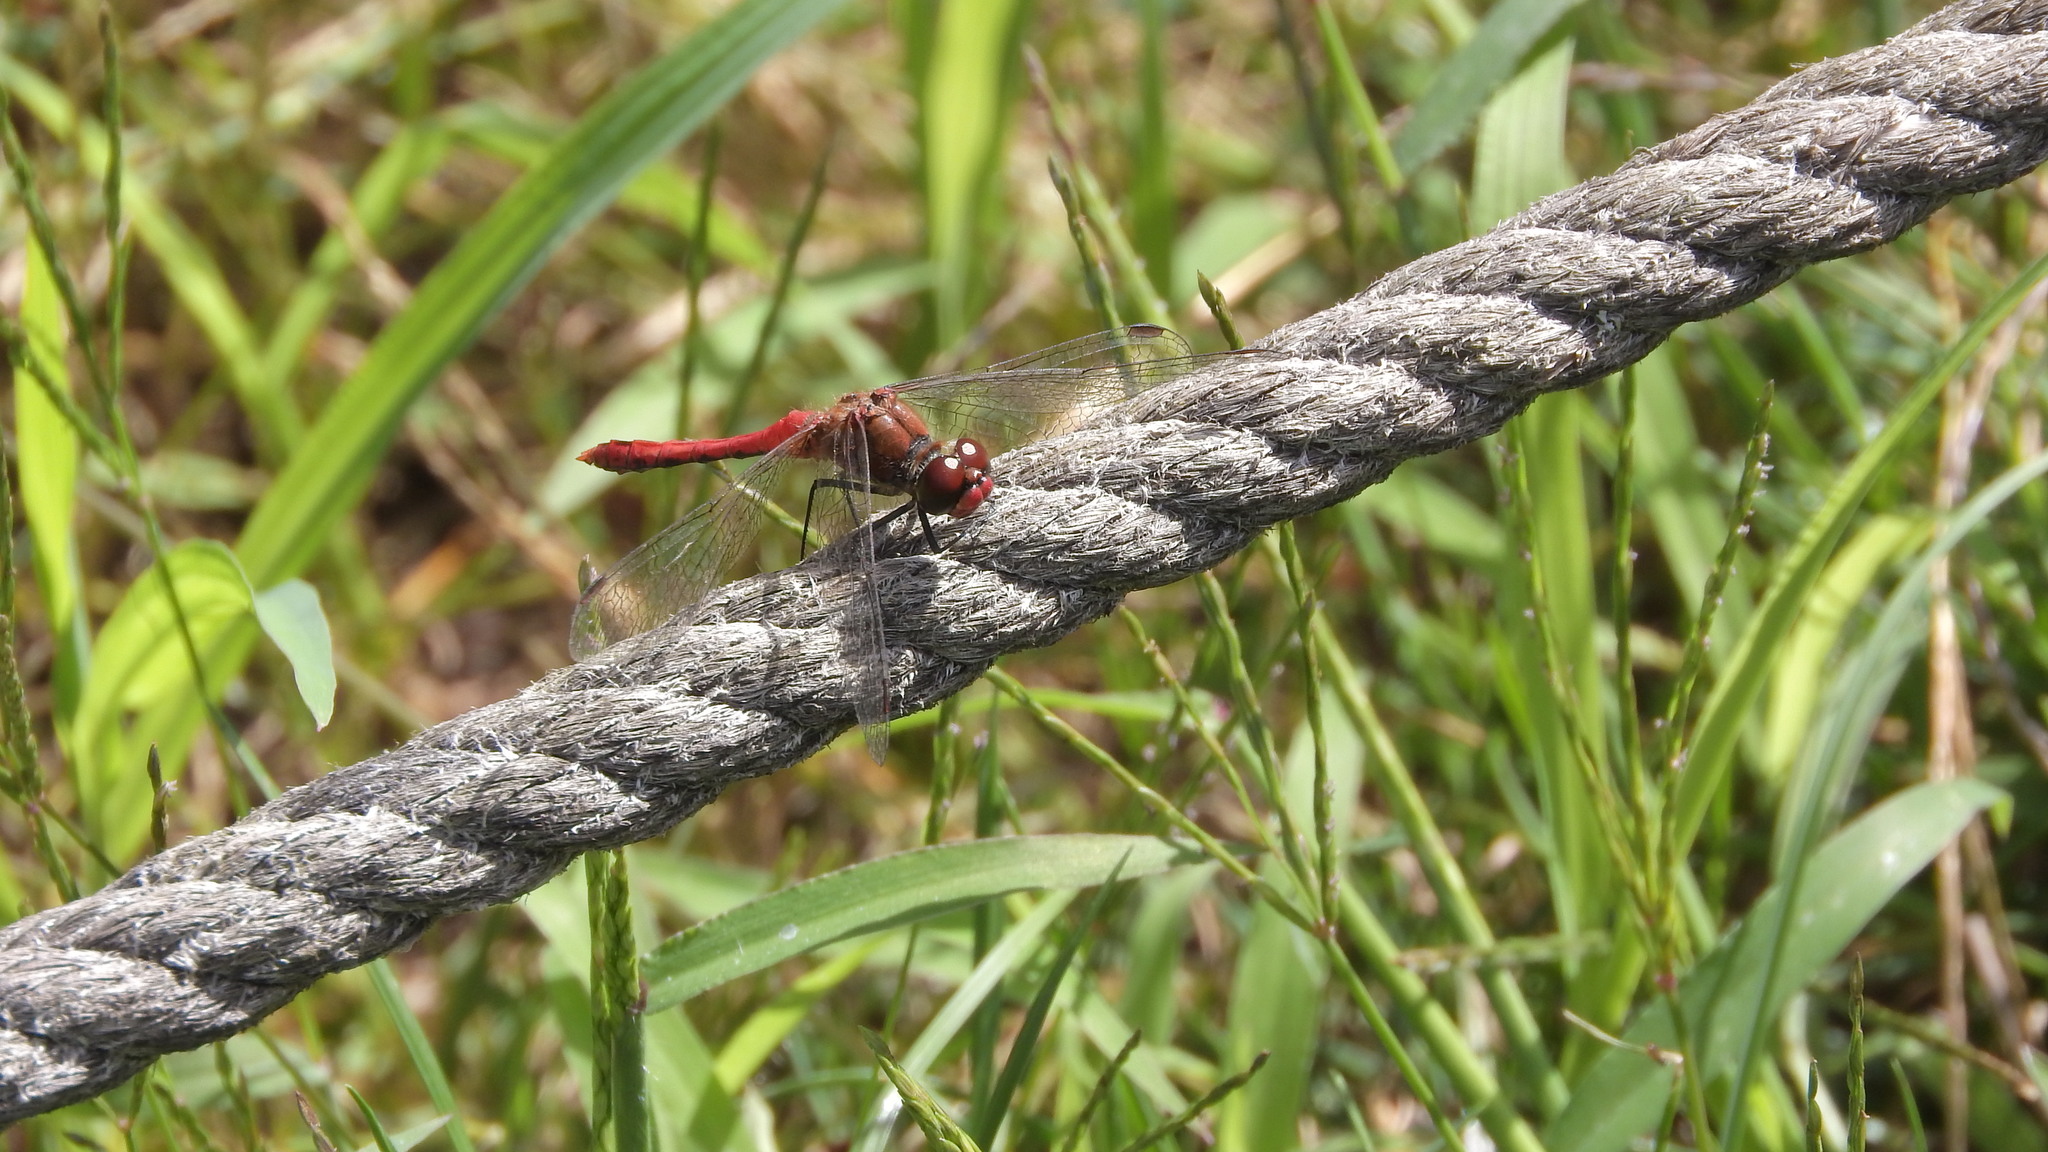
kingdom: Animalia
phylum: Arthropoda
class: Insecta
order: Odonata
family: Libellulidae
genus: Sympetrum
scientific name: Sympetrum sanguineum
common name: Ruddy darter
